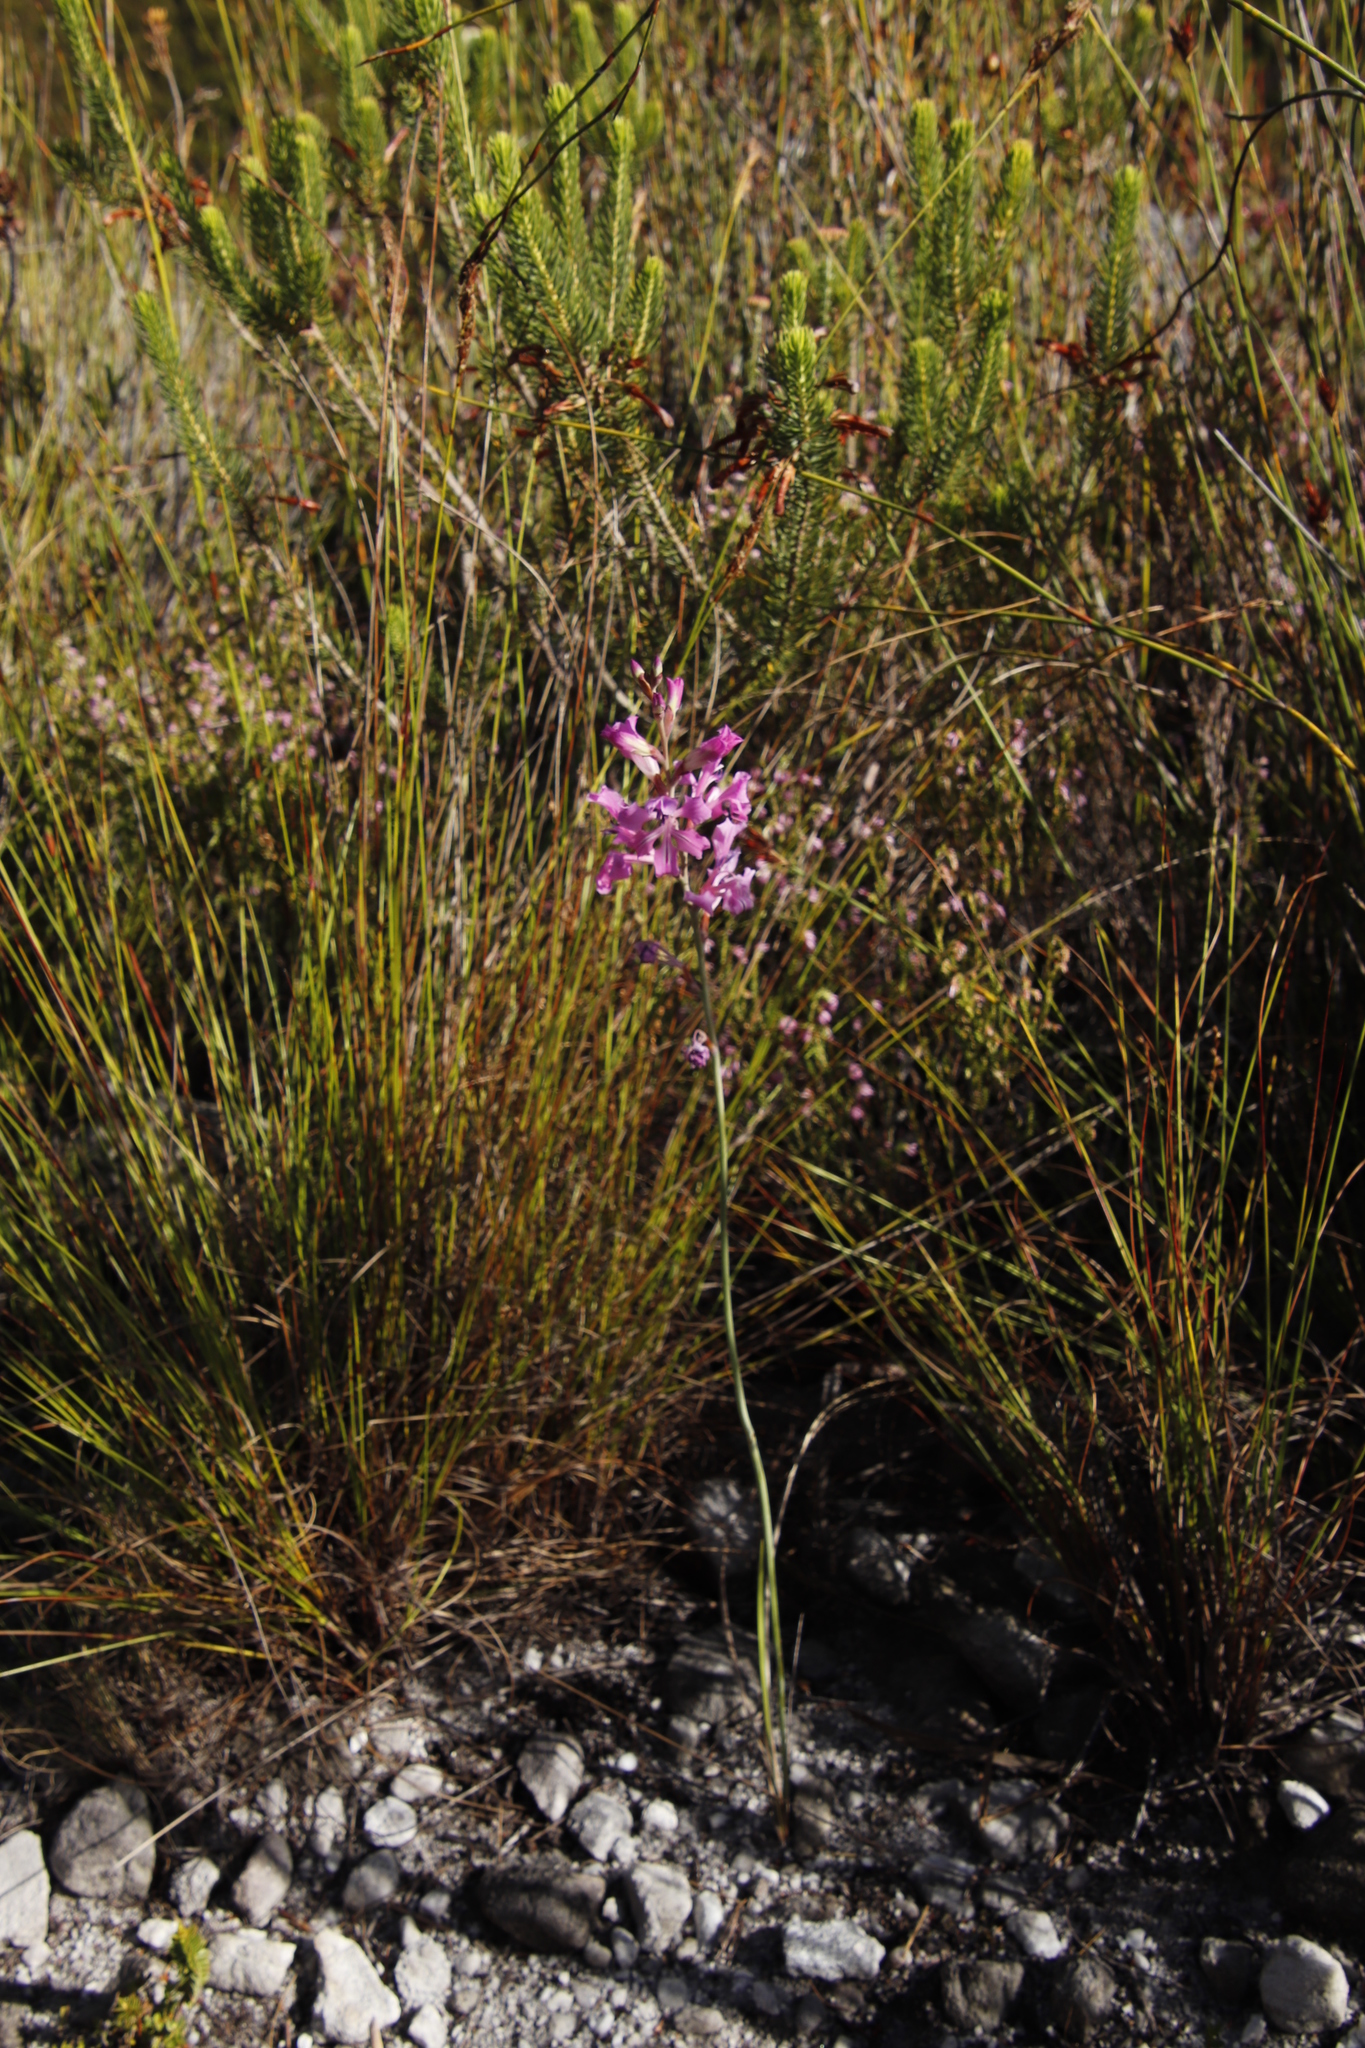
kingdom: Plantae
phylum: Tracheophyta
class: Liliopsida
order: Asparagales
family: Iridaceae
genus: Tritoniopsis
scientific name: Tritoniopsis lata
